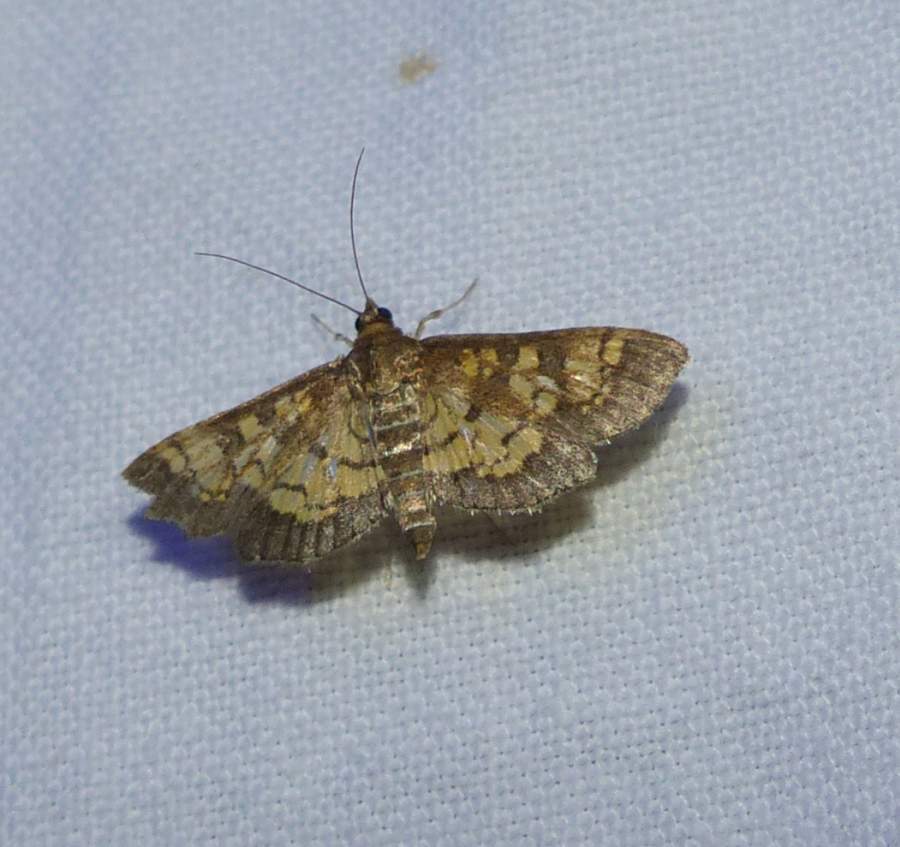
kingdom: Animalia
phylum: Arthropoda
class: Insecta
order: Lepidoptera
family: Crambidae
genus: Epipagis
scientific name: Epipagis adipaloides
